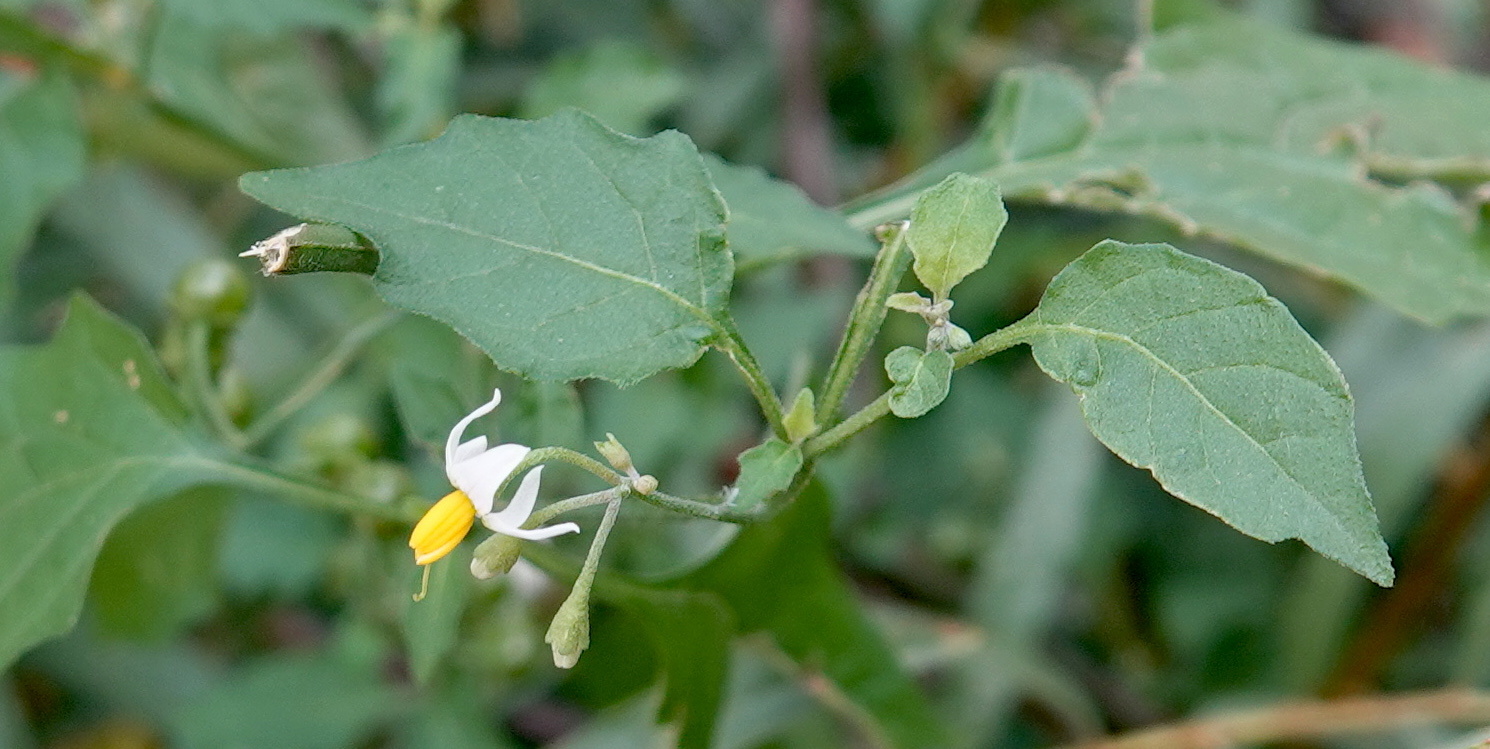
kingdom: Plantae
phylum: Tracheophyta
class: Magnoliopsida
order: Solanales
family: Solanaceae
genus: Solanum
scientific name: Solanum douglasii
